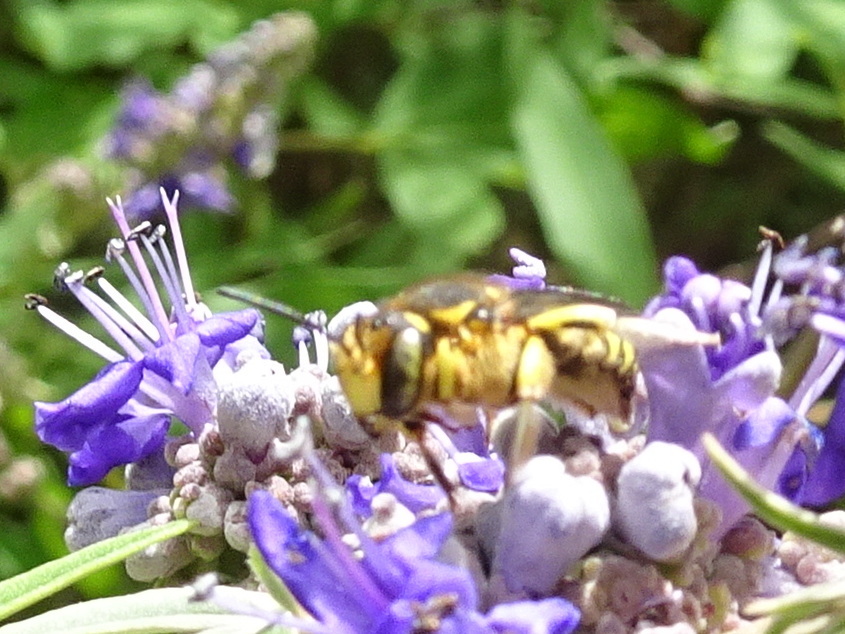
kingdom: Animalia
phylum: Arthropoda
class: Insecta
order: Hymenoptera
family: Megachilidae
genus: Anthidium
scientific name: Anthidium florentinum
